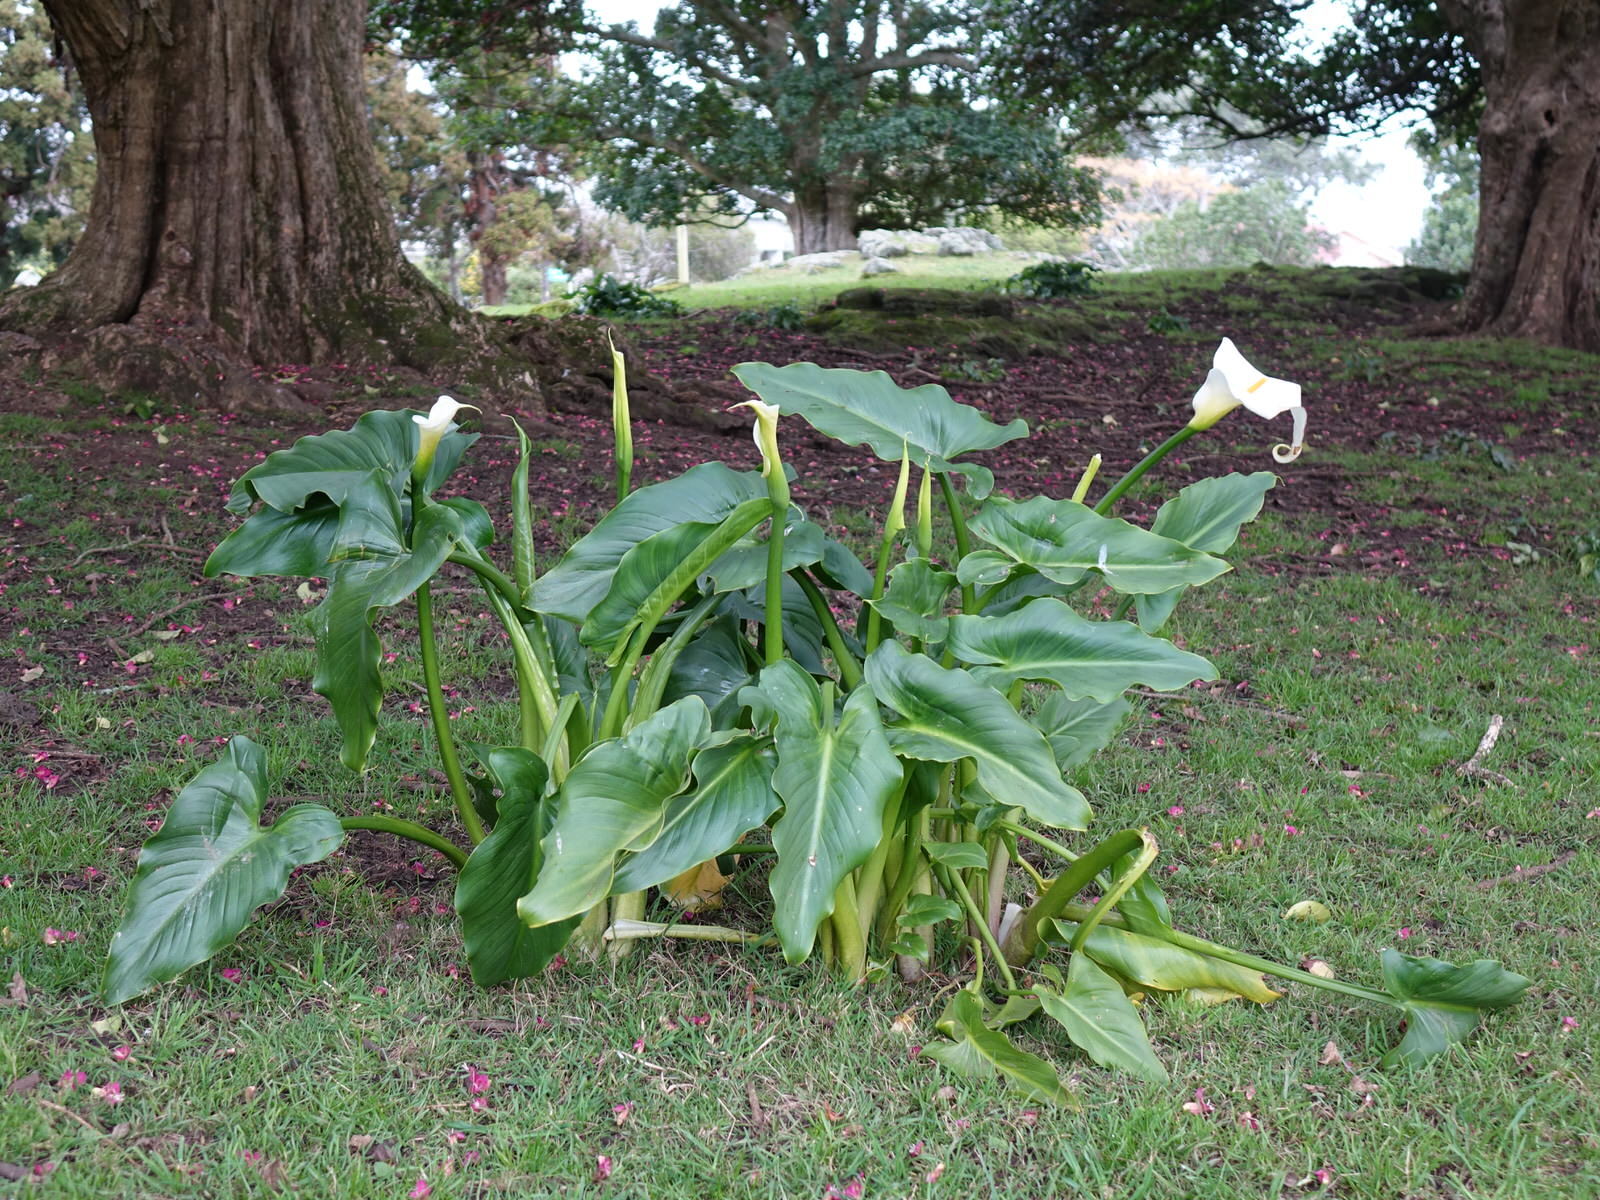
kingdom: Plantae
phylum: Tracheophyta
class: Liliopsida
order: Alismatales
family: Araceae
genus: Zantedeschia
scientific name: Zantedeschia aethiopica
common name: Altar-lily
